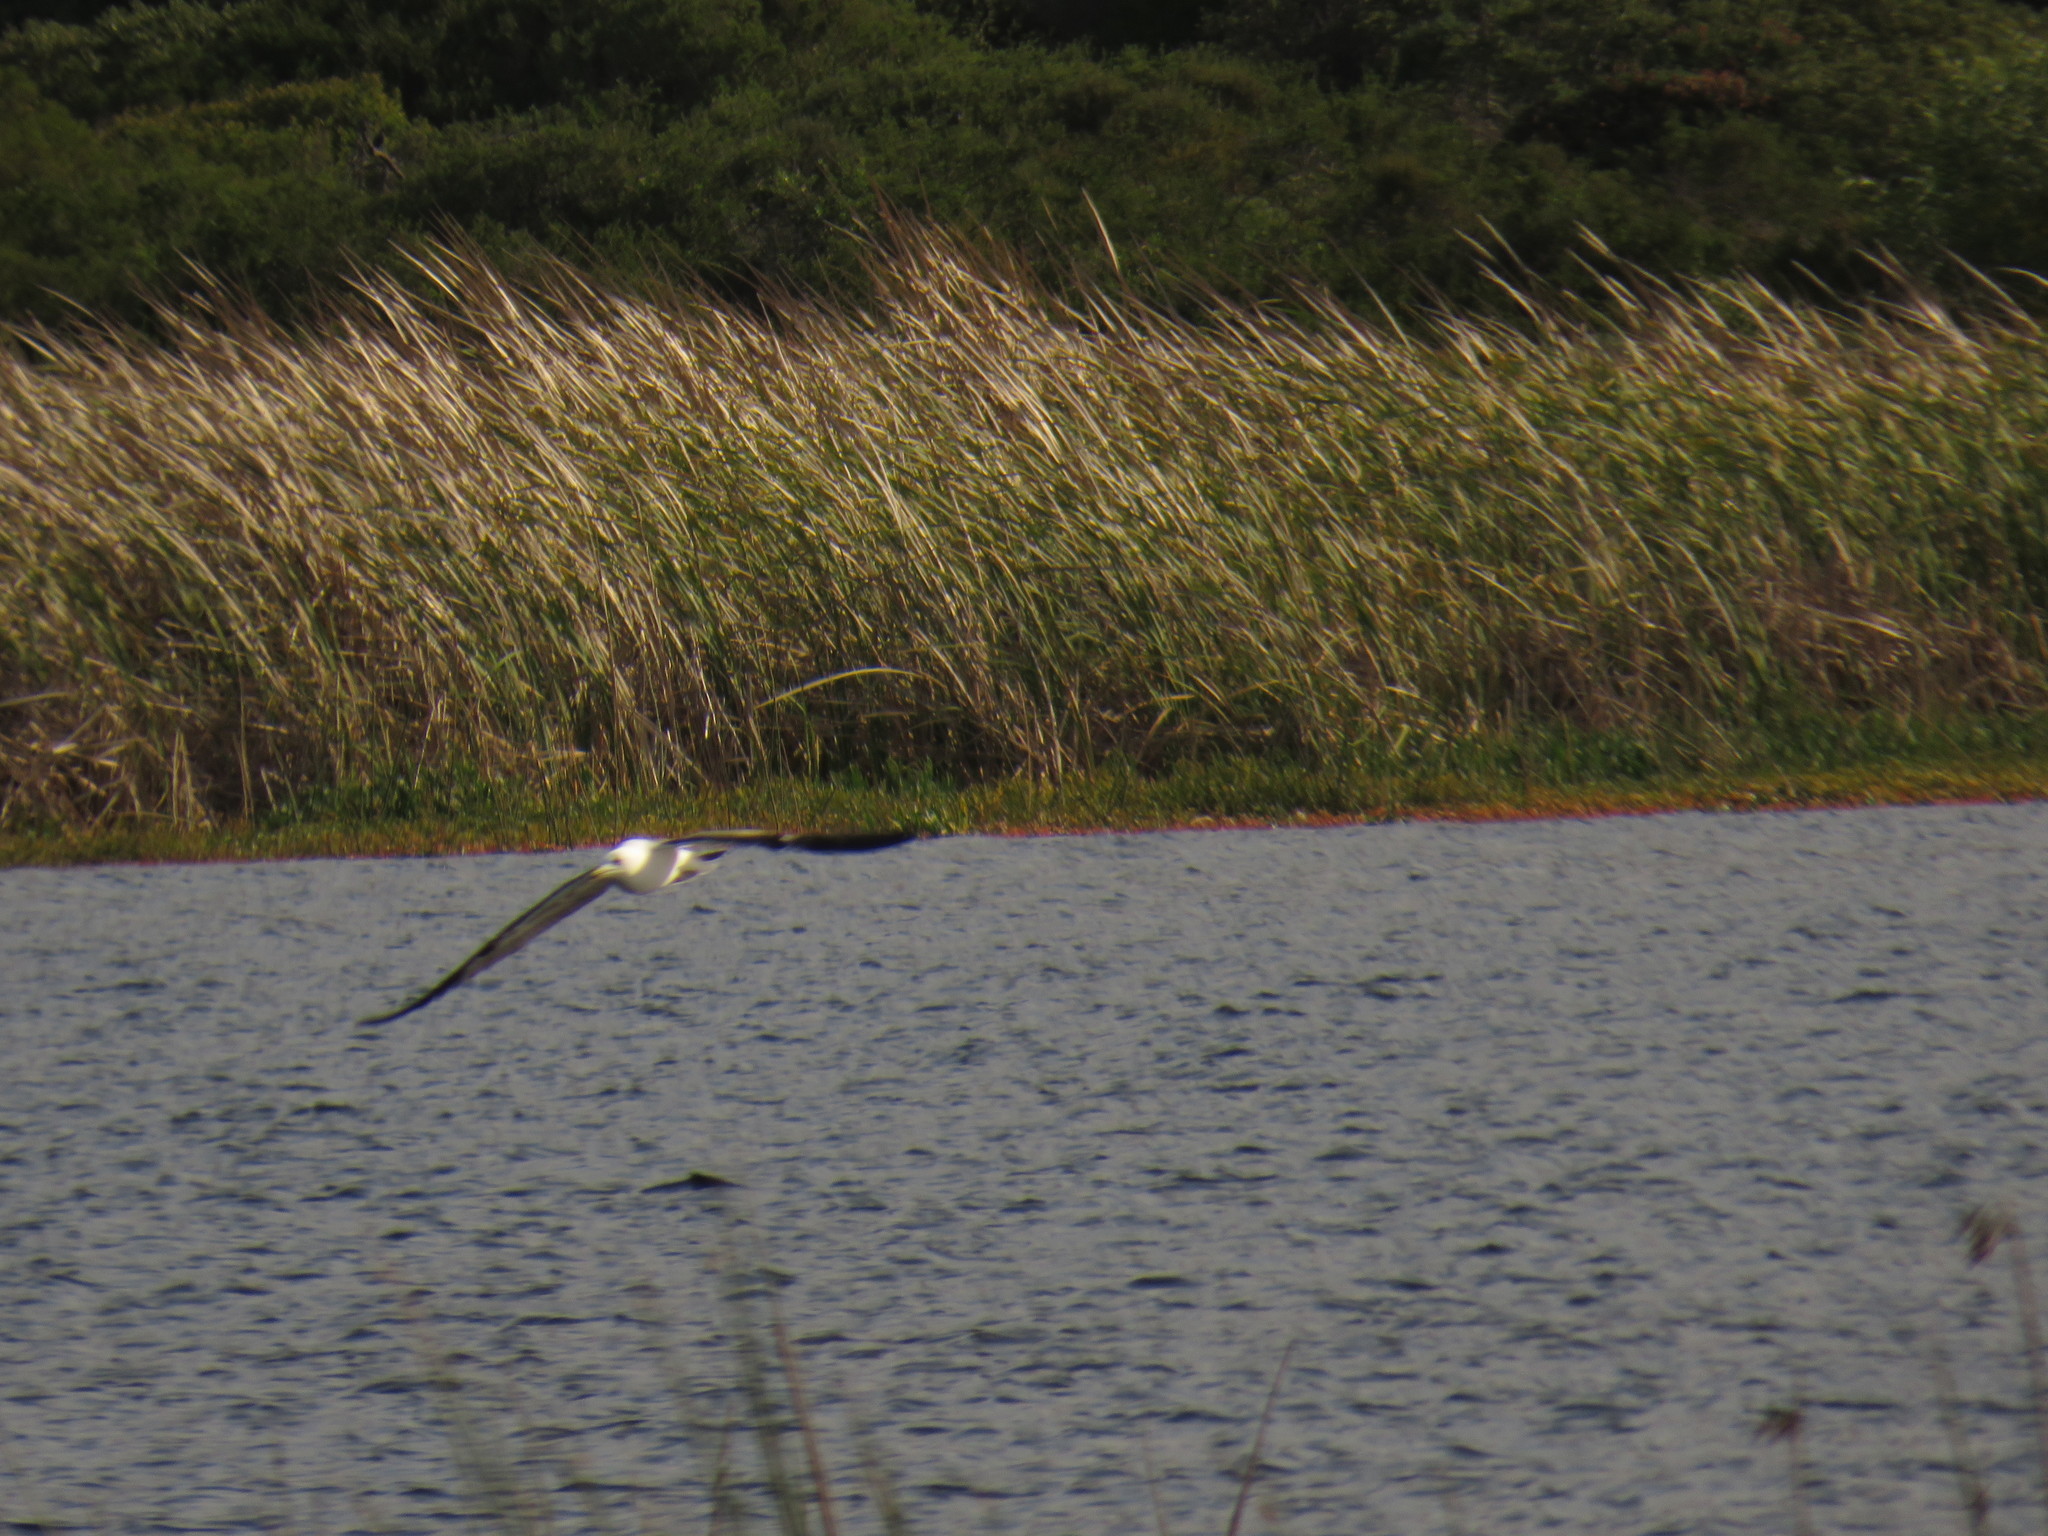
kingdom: Animalia
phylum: Chordata
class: Aves
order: Charadriiformes
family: Laridae
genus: Larus
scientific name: Larus dominicanus
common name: Kelp gull
